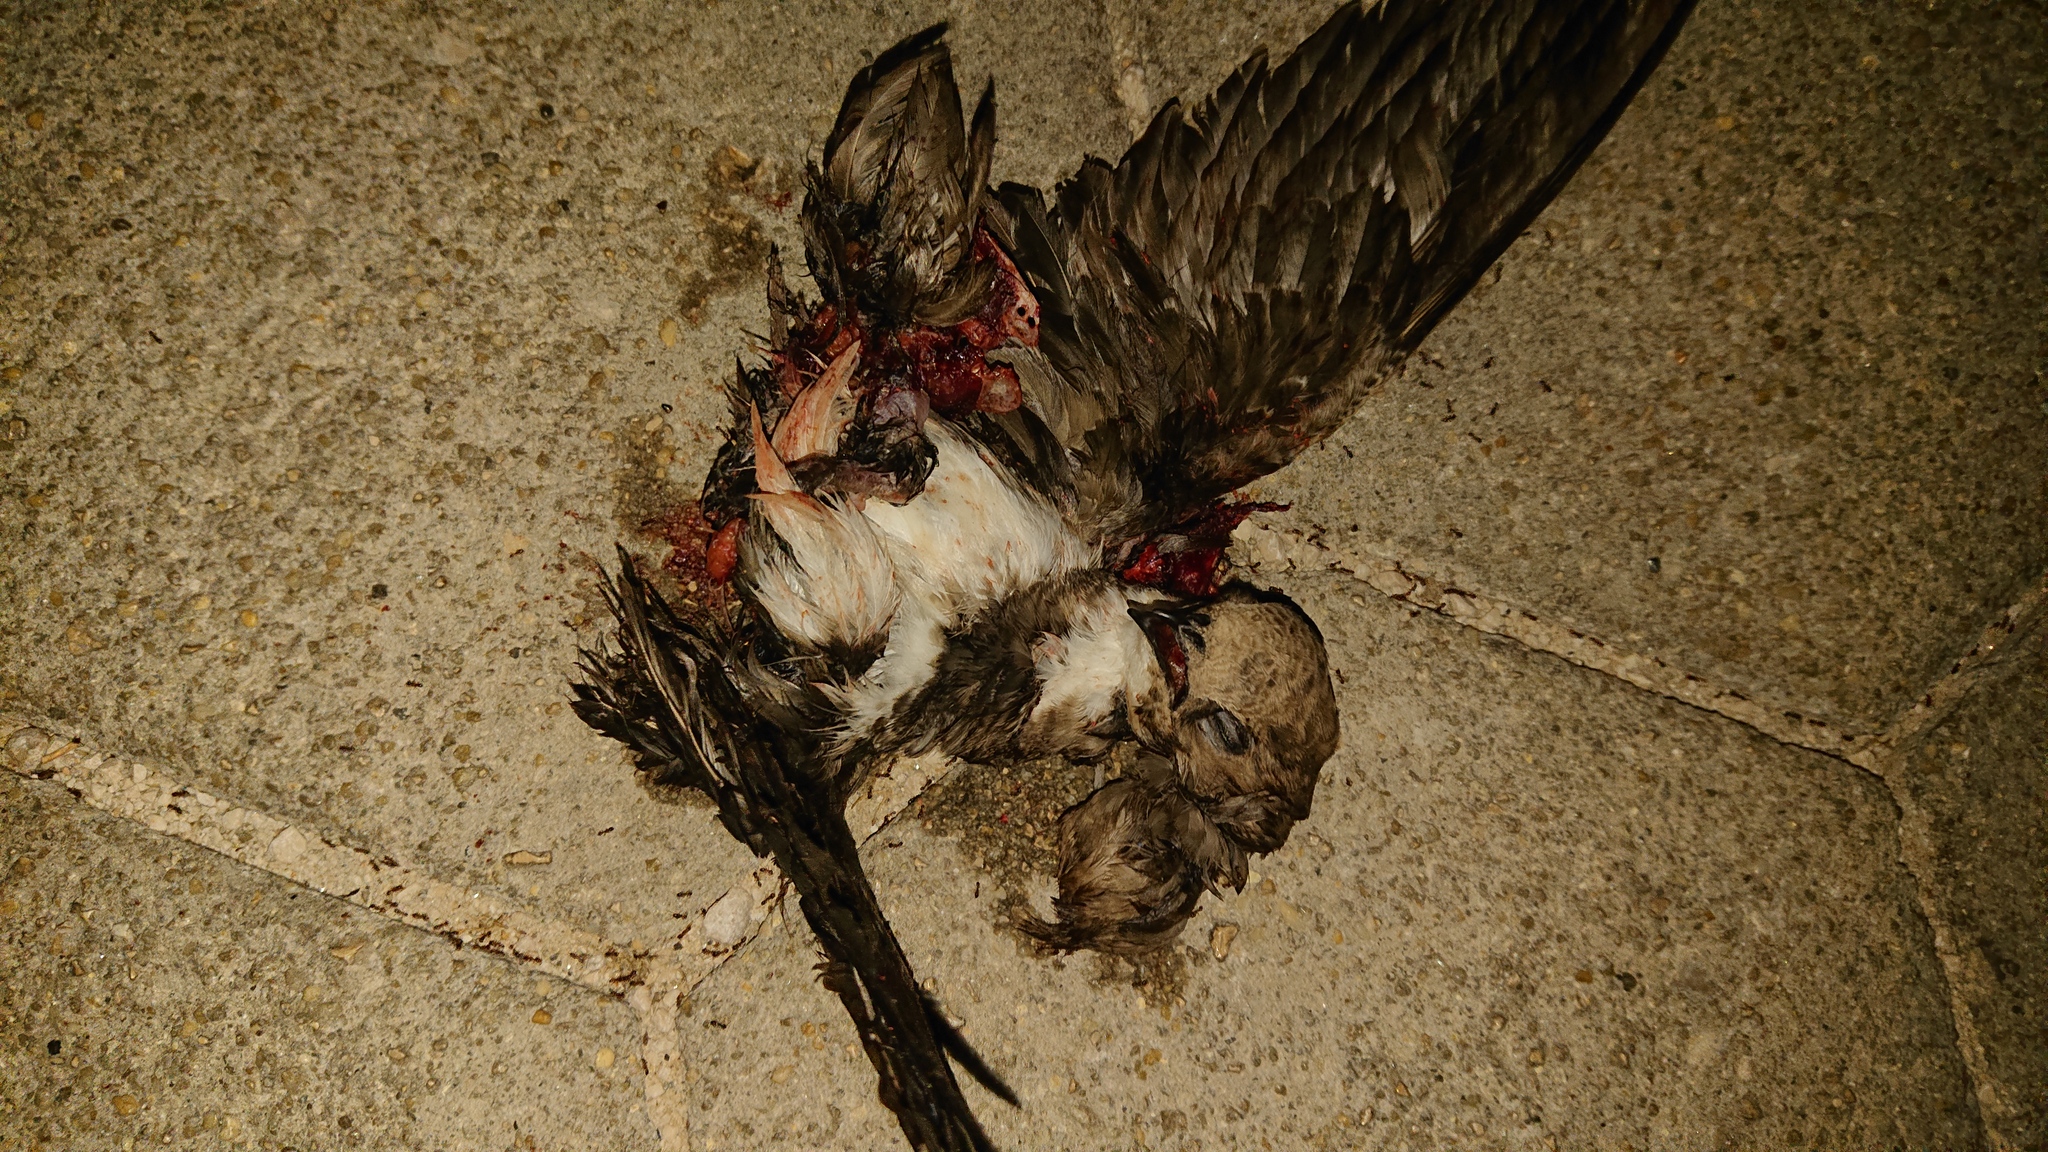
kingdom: Animalia
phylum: Chordata
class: Aves
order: Apodiformes
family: Apodidae
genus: Tachymarptis
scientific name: Tachymarptis melba
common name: Alpine swift
